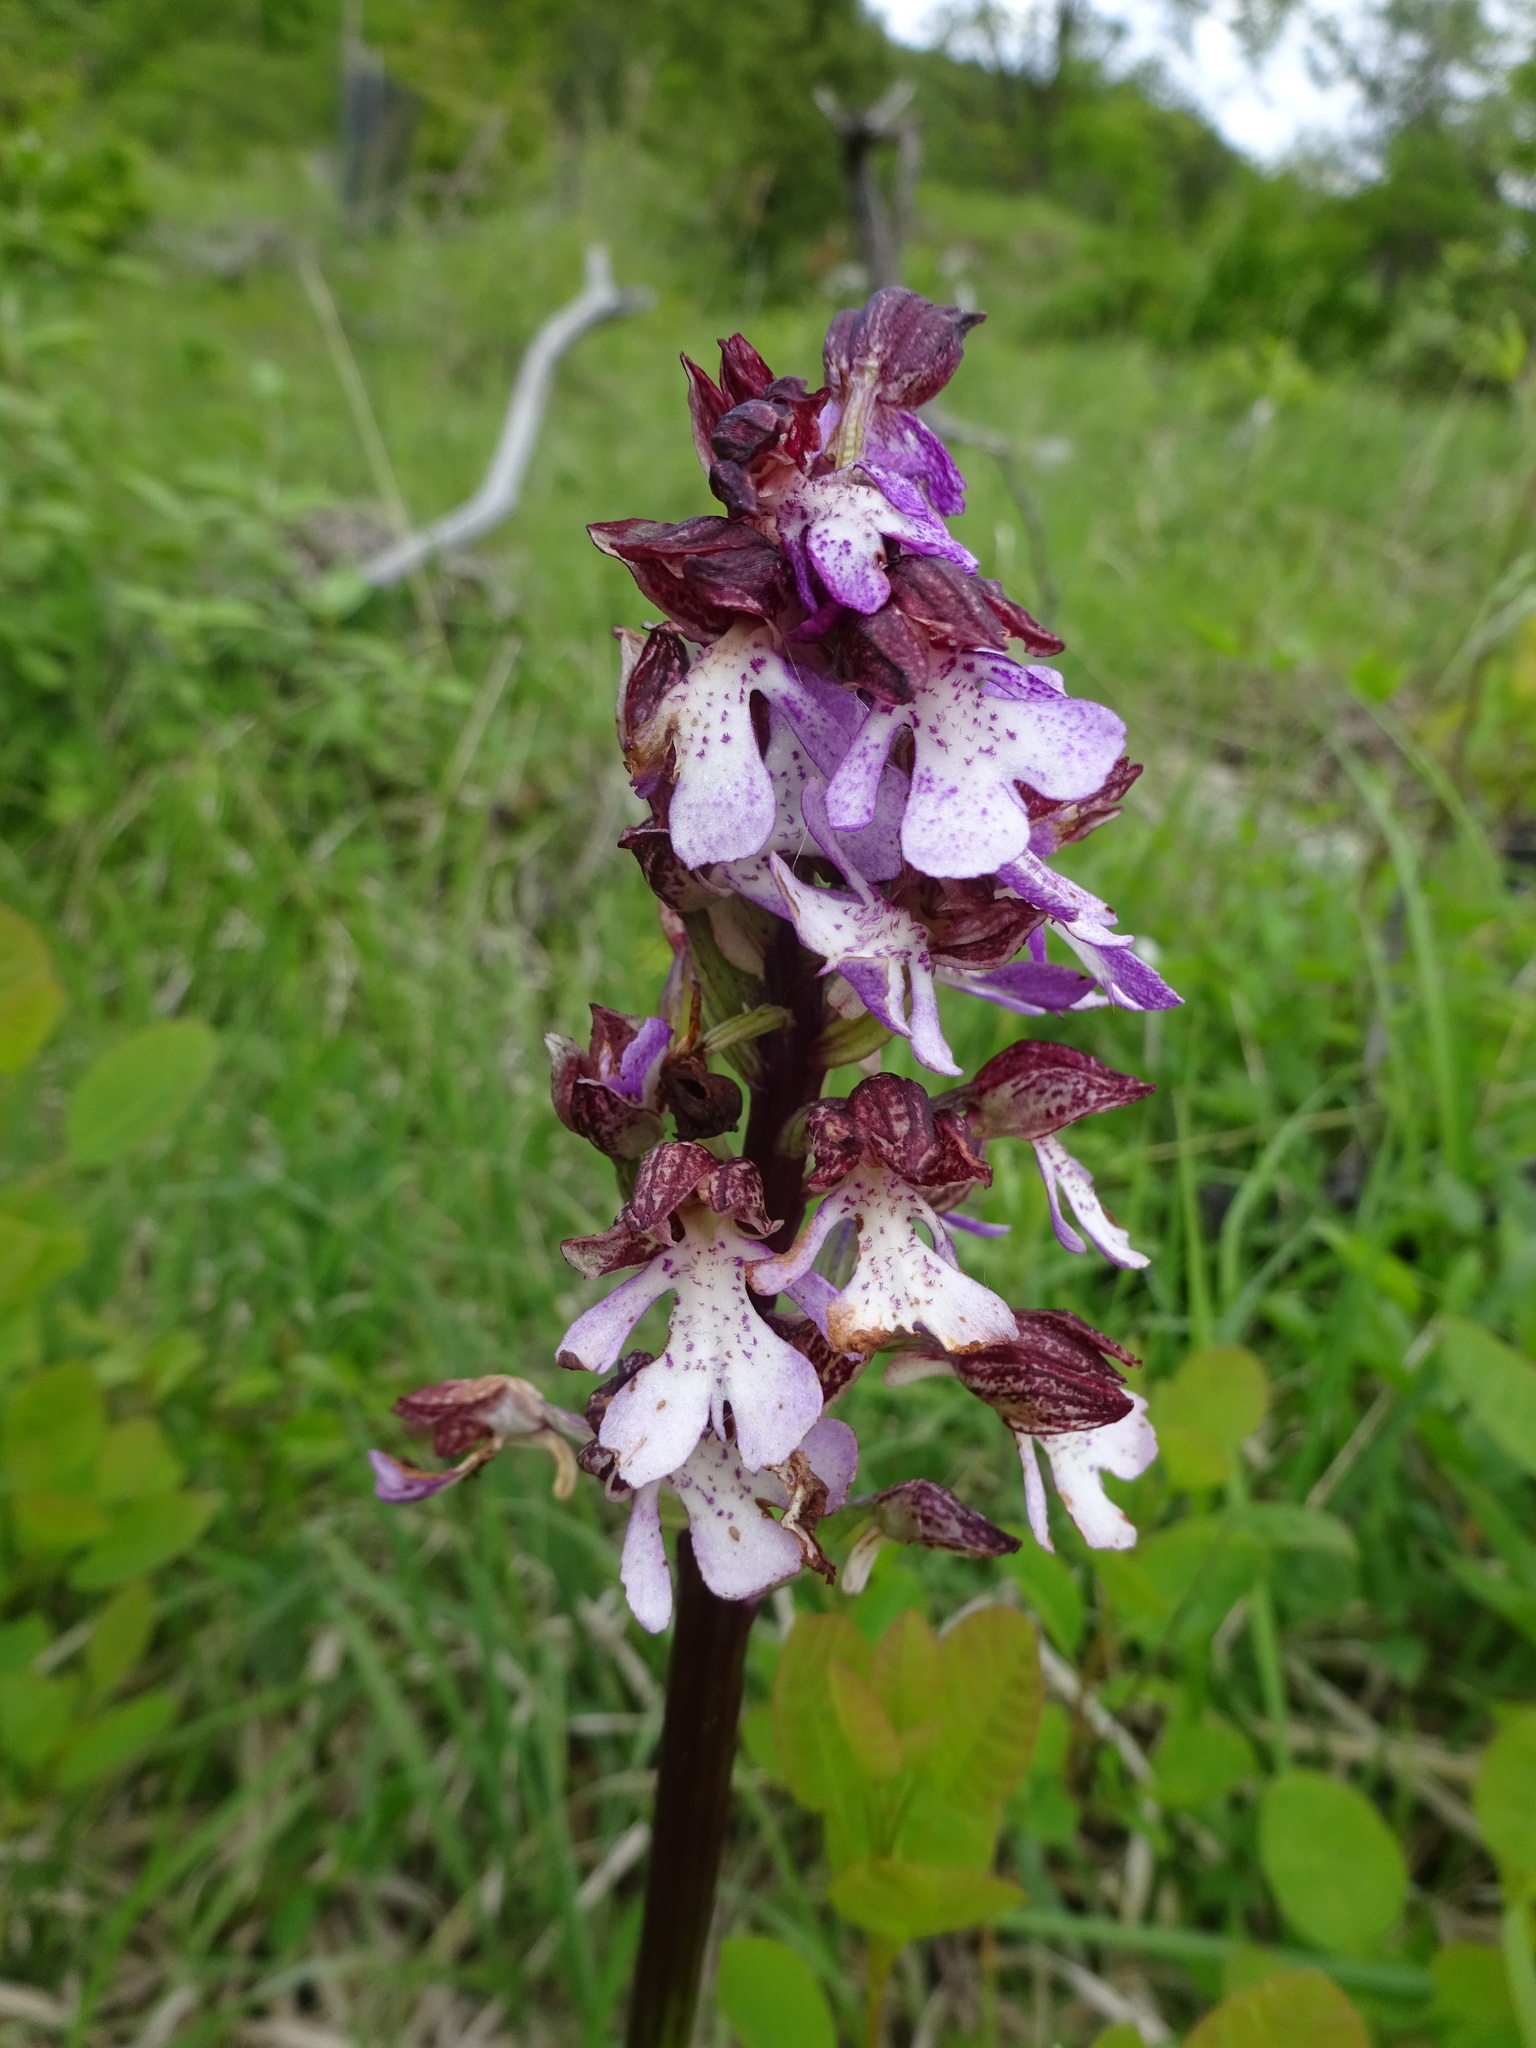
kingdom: Plantae
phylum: Tracheophyta
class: Liliopsida
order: Asparagales
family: Orchidaceae
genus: Orchis
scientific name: Orchis purpurea
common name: Lady orchid
